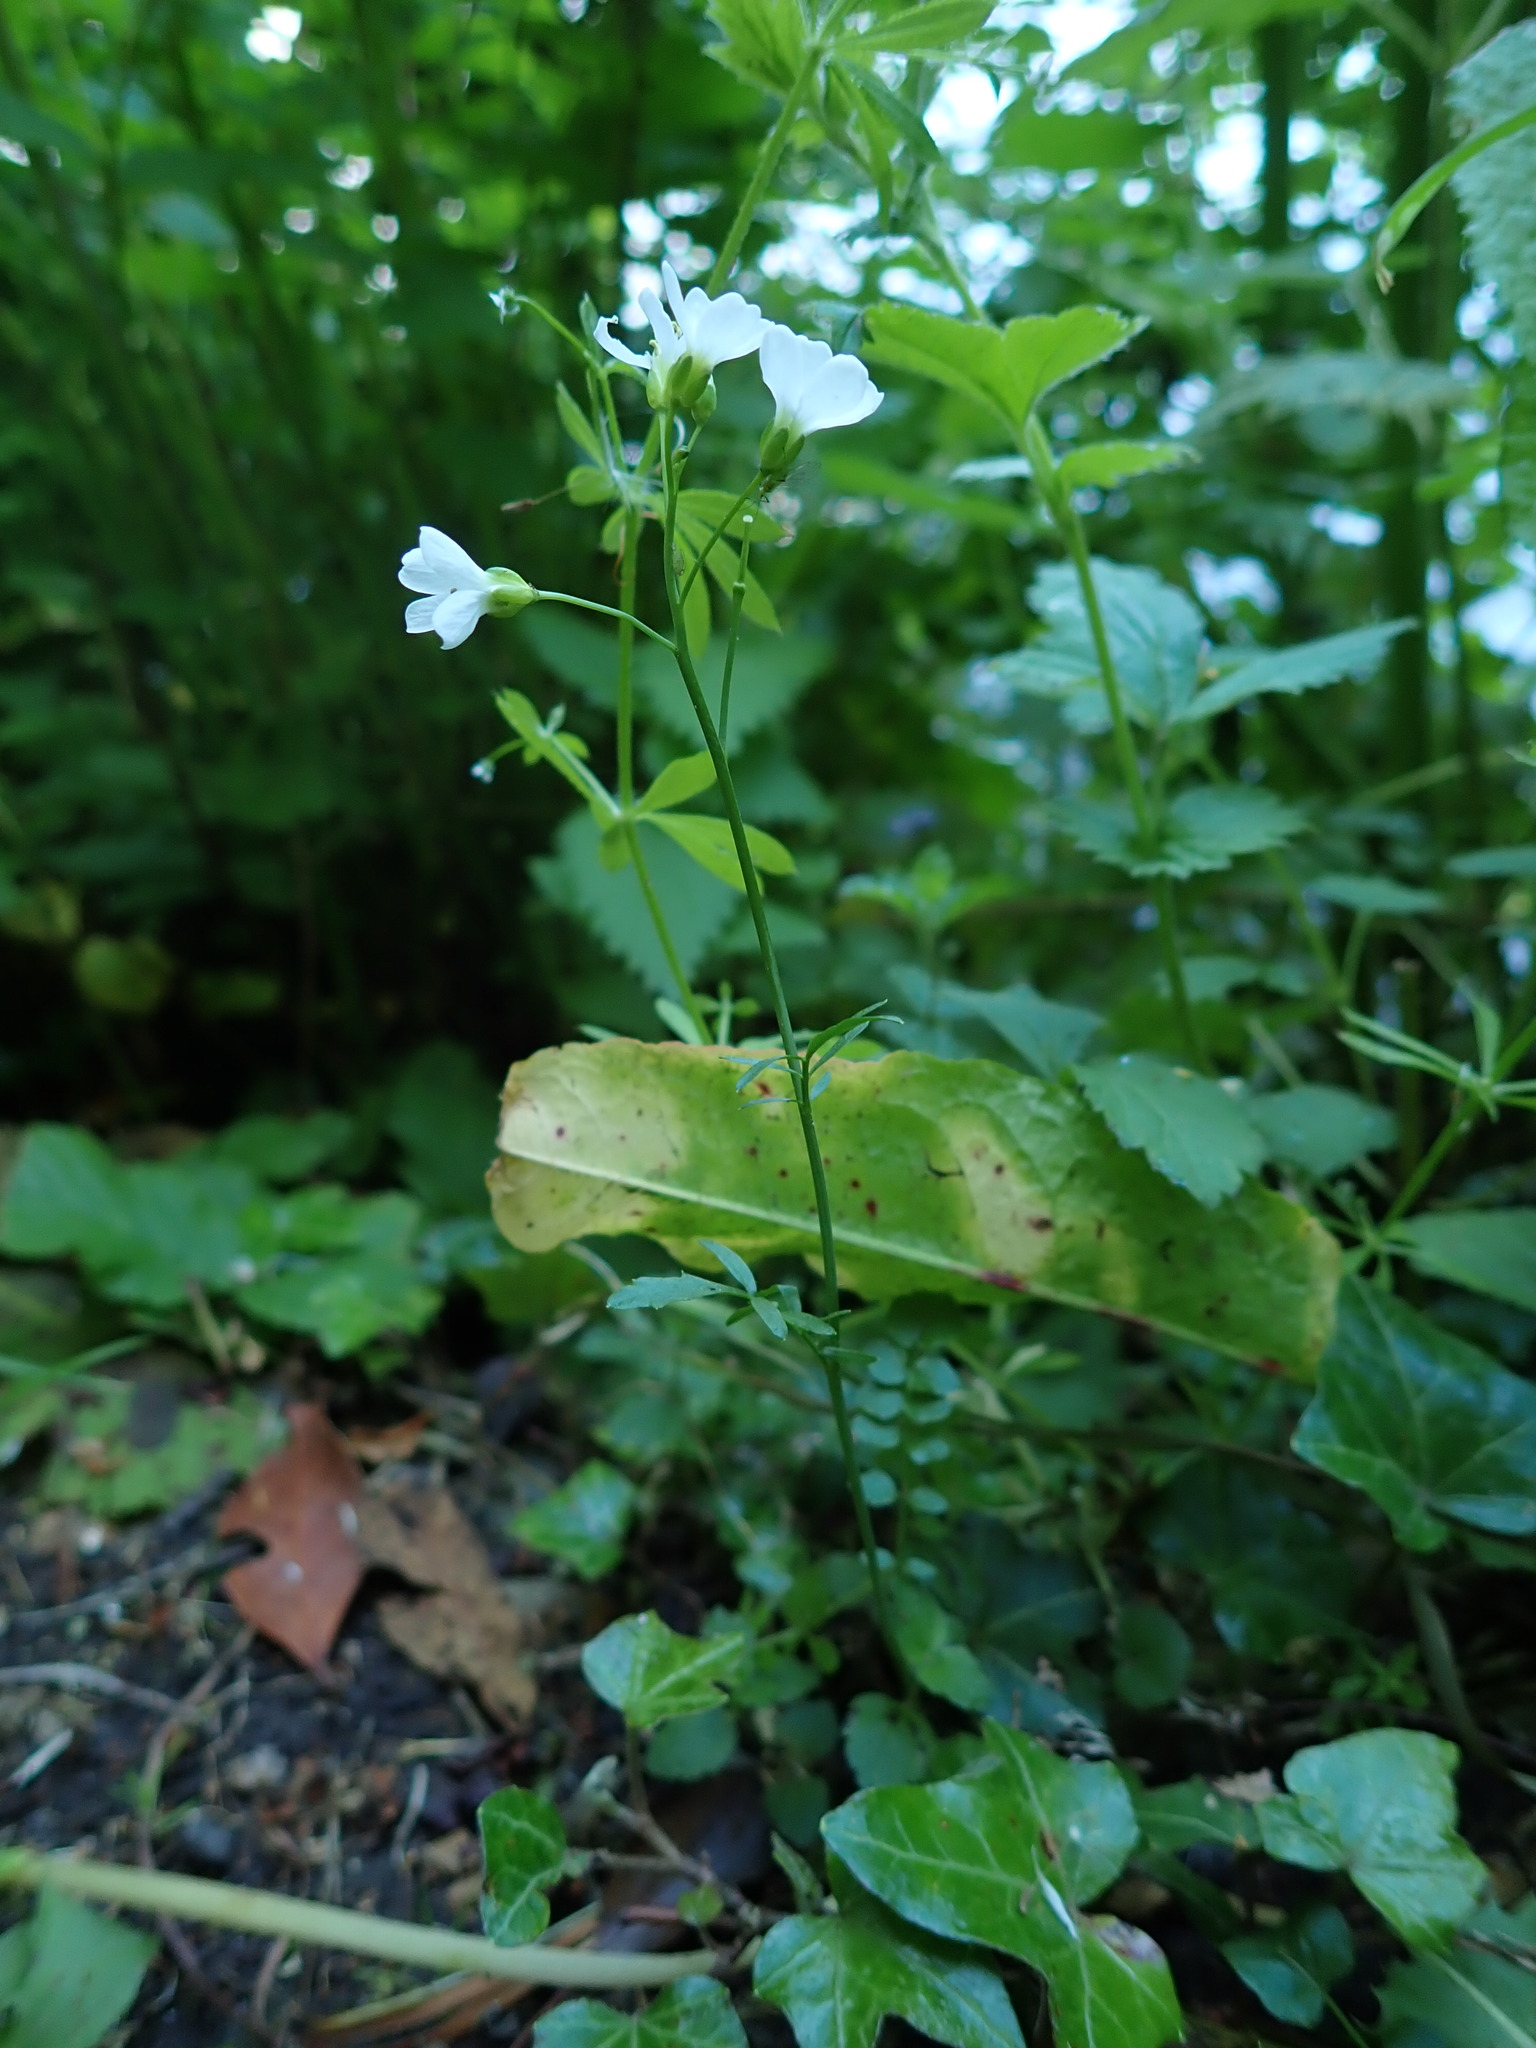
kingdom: Plantae
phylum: Tracheophyta
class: Magnoliopsida
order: Brassicales
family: Brassicaceae
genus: Cardamine
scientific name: Cardamine pratensis
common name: Cuckoo flower
